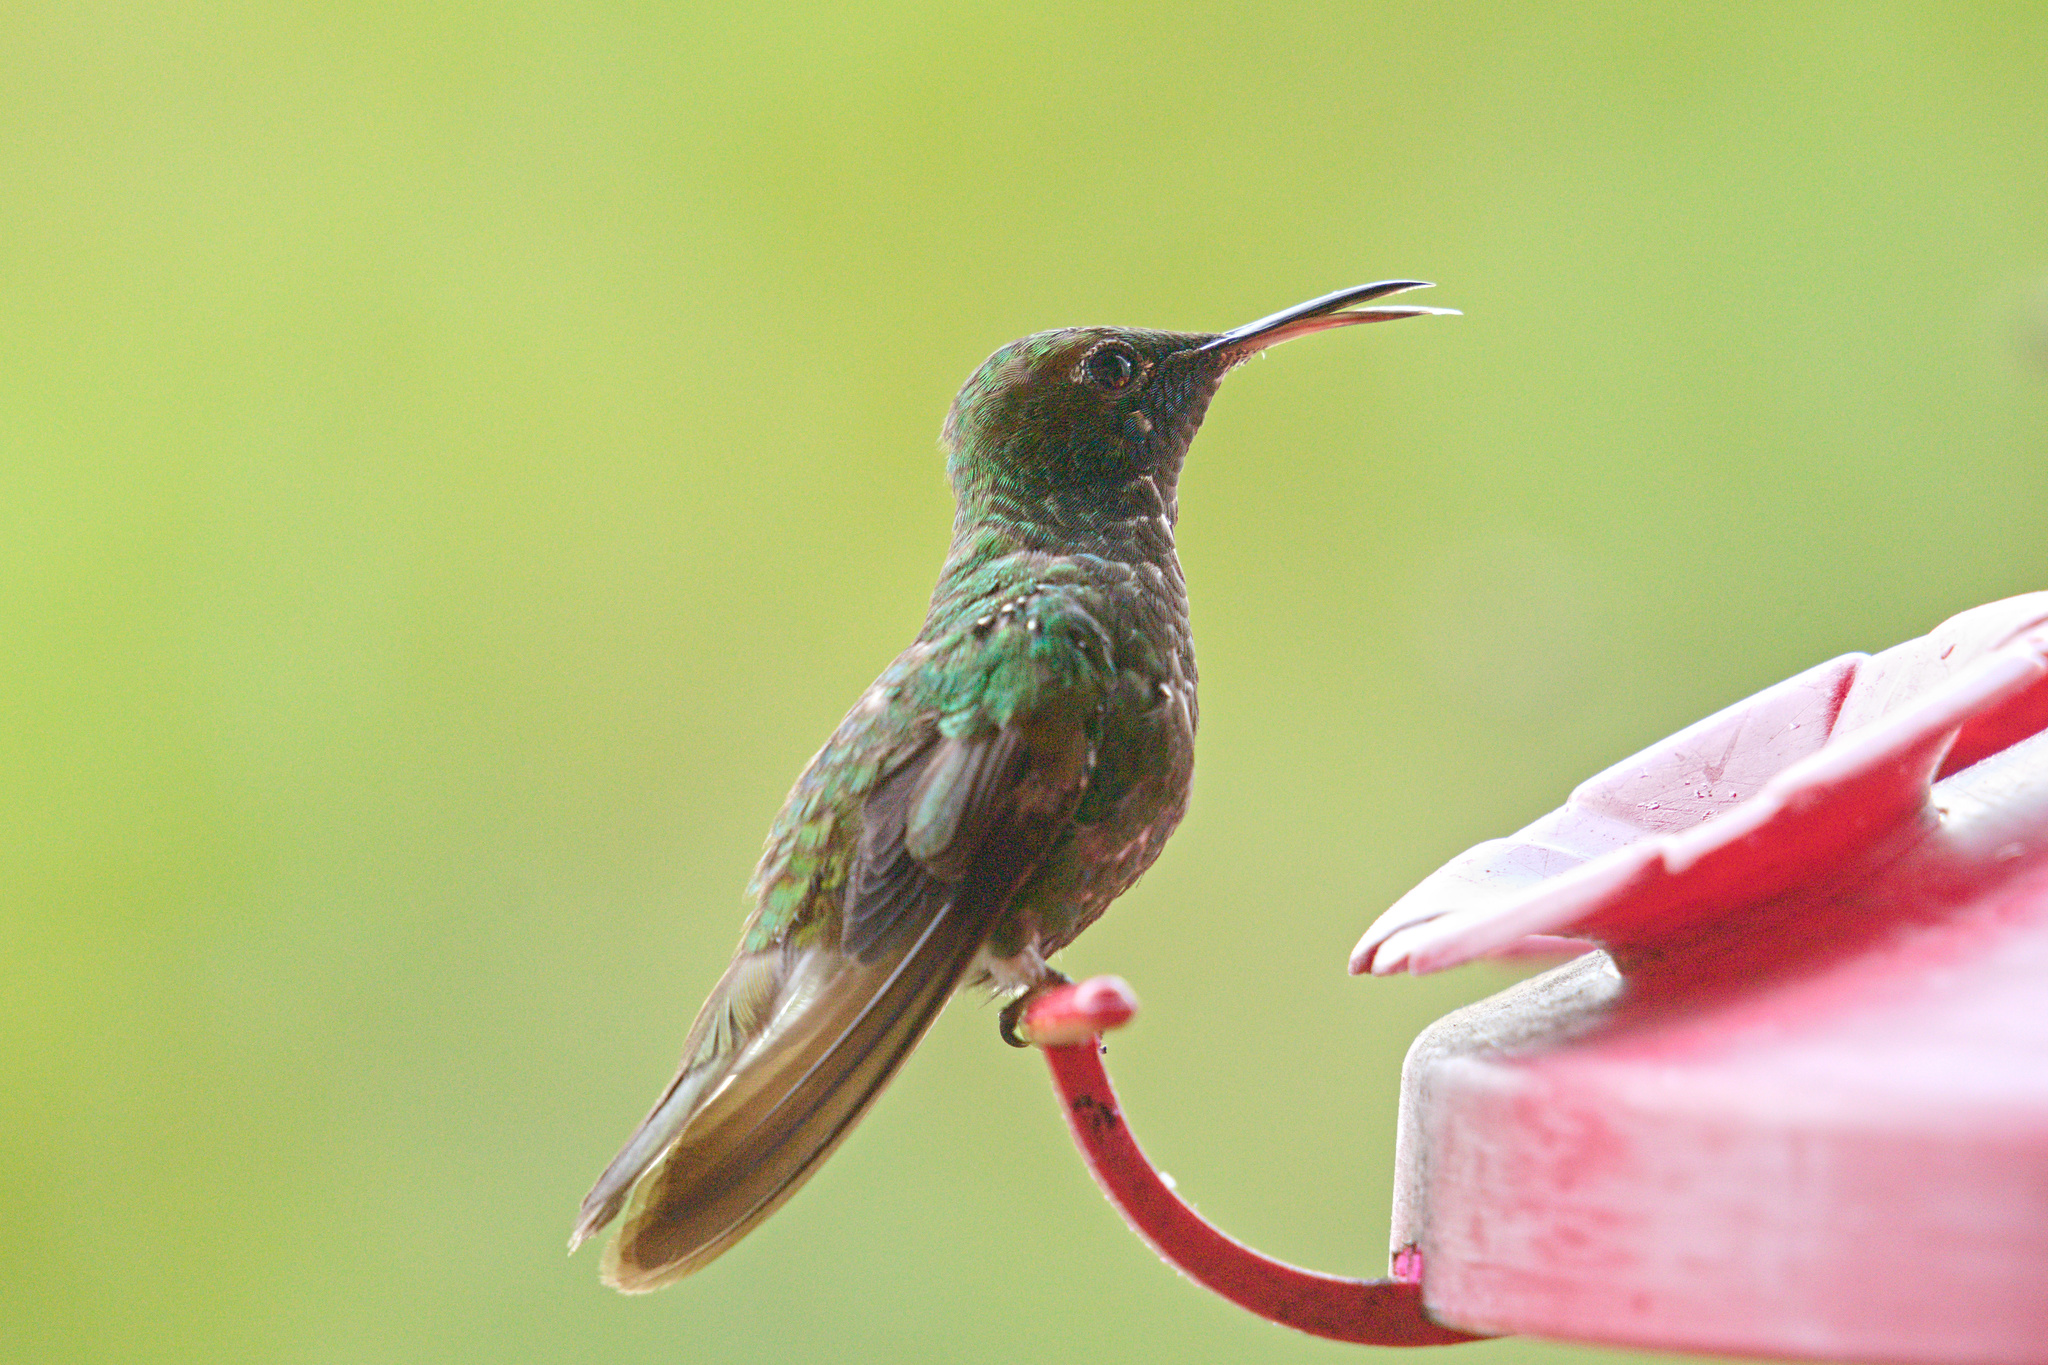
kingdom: Animalia
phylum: Chordata
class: Aves
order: Apodiformes
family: Trochilidae
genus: Microchera
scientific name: Microchera cupreiceps
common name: Coppery-headed emerald
